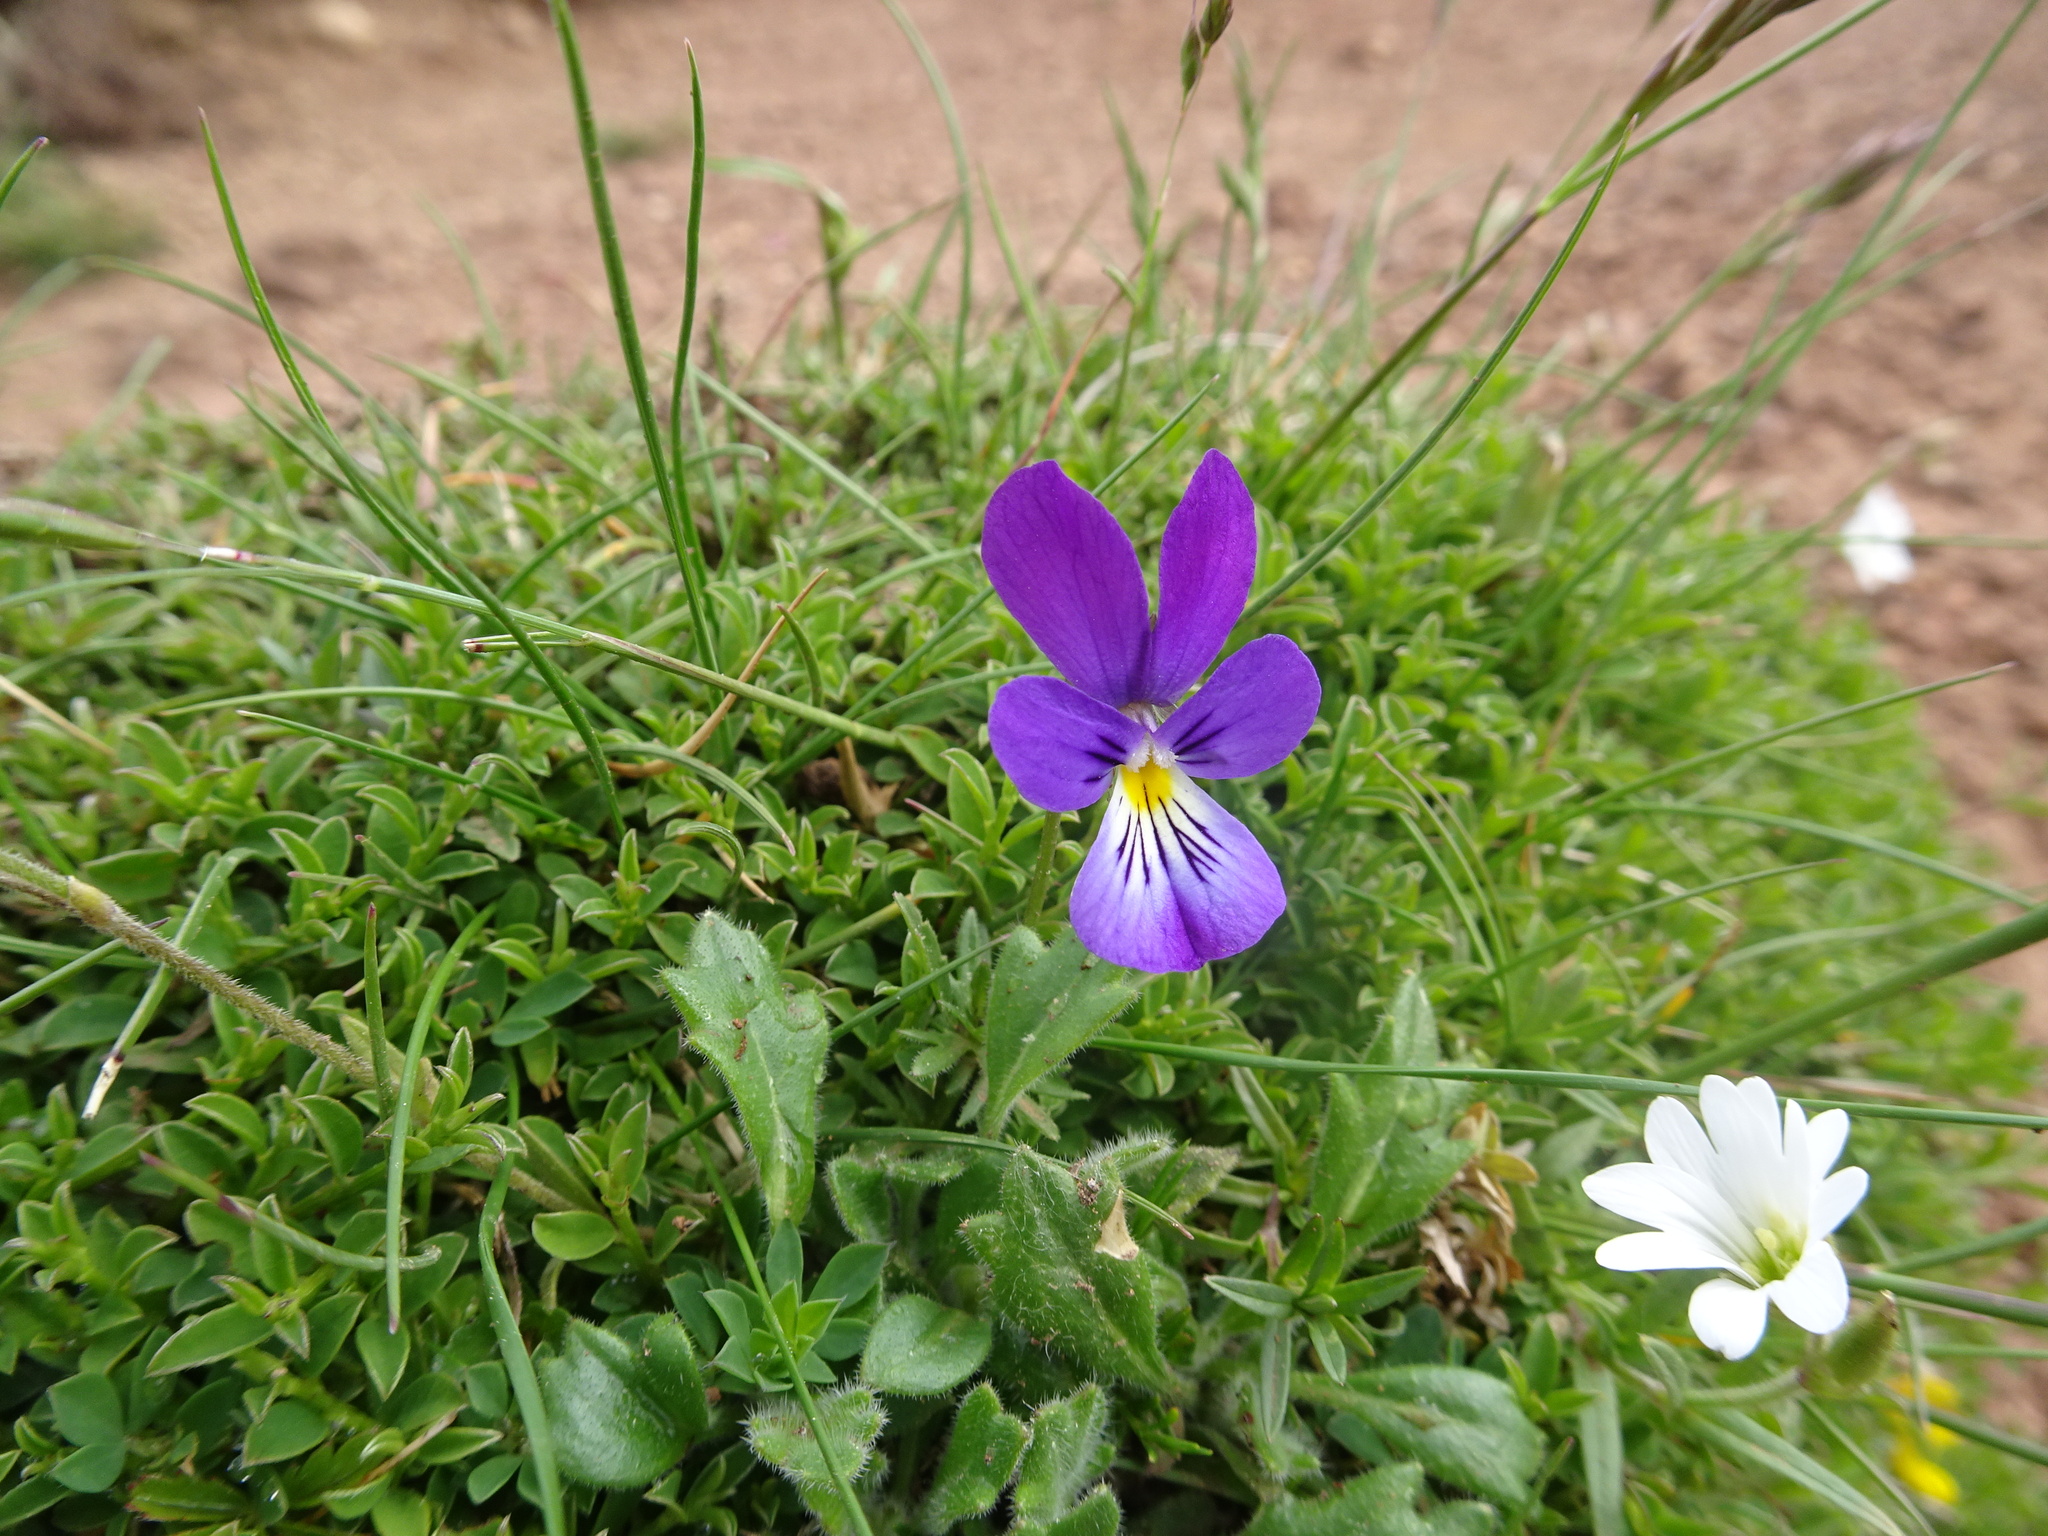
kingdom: Plantae
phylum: Tracheophyta
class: Magnoliopsida
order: Malpighiales
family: Violaceae
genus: Viola
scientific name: Viola lutea
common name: Mountain pansy
